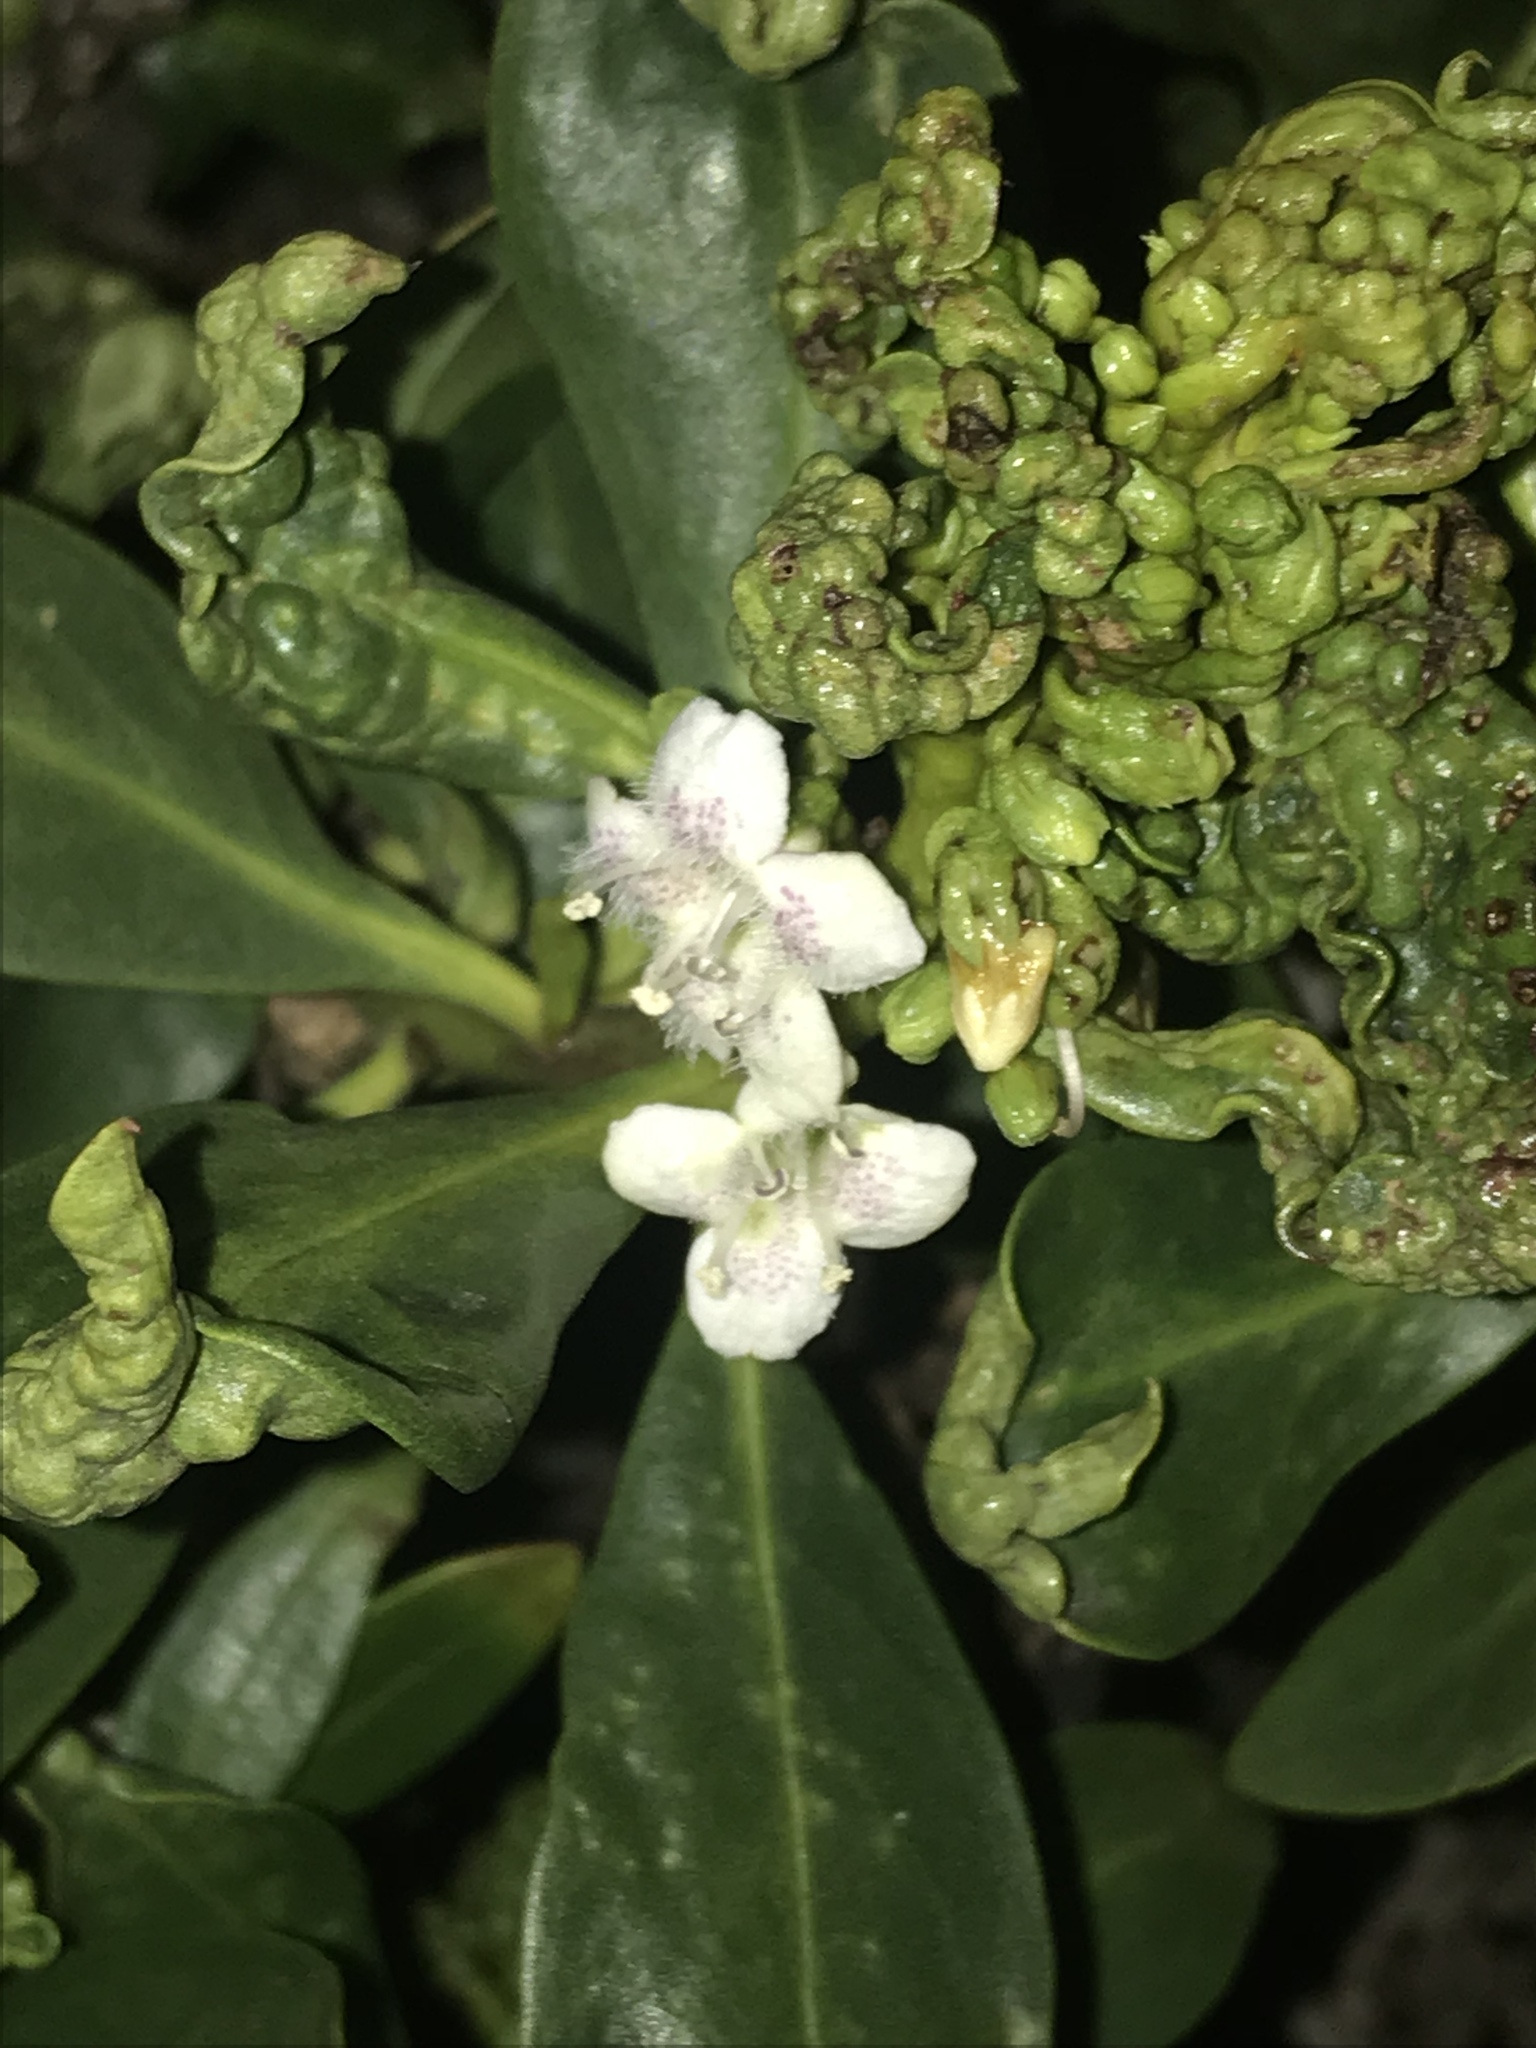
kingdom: Plantae
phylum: Tracheophyta
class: Magnoliopsida
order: Lamiales
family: Scrophulariaceae
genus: Myoporum
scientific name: Myoporum laetum
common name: Ngaio tree
